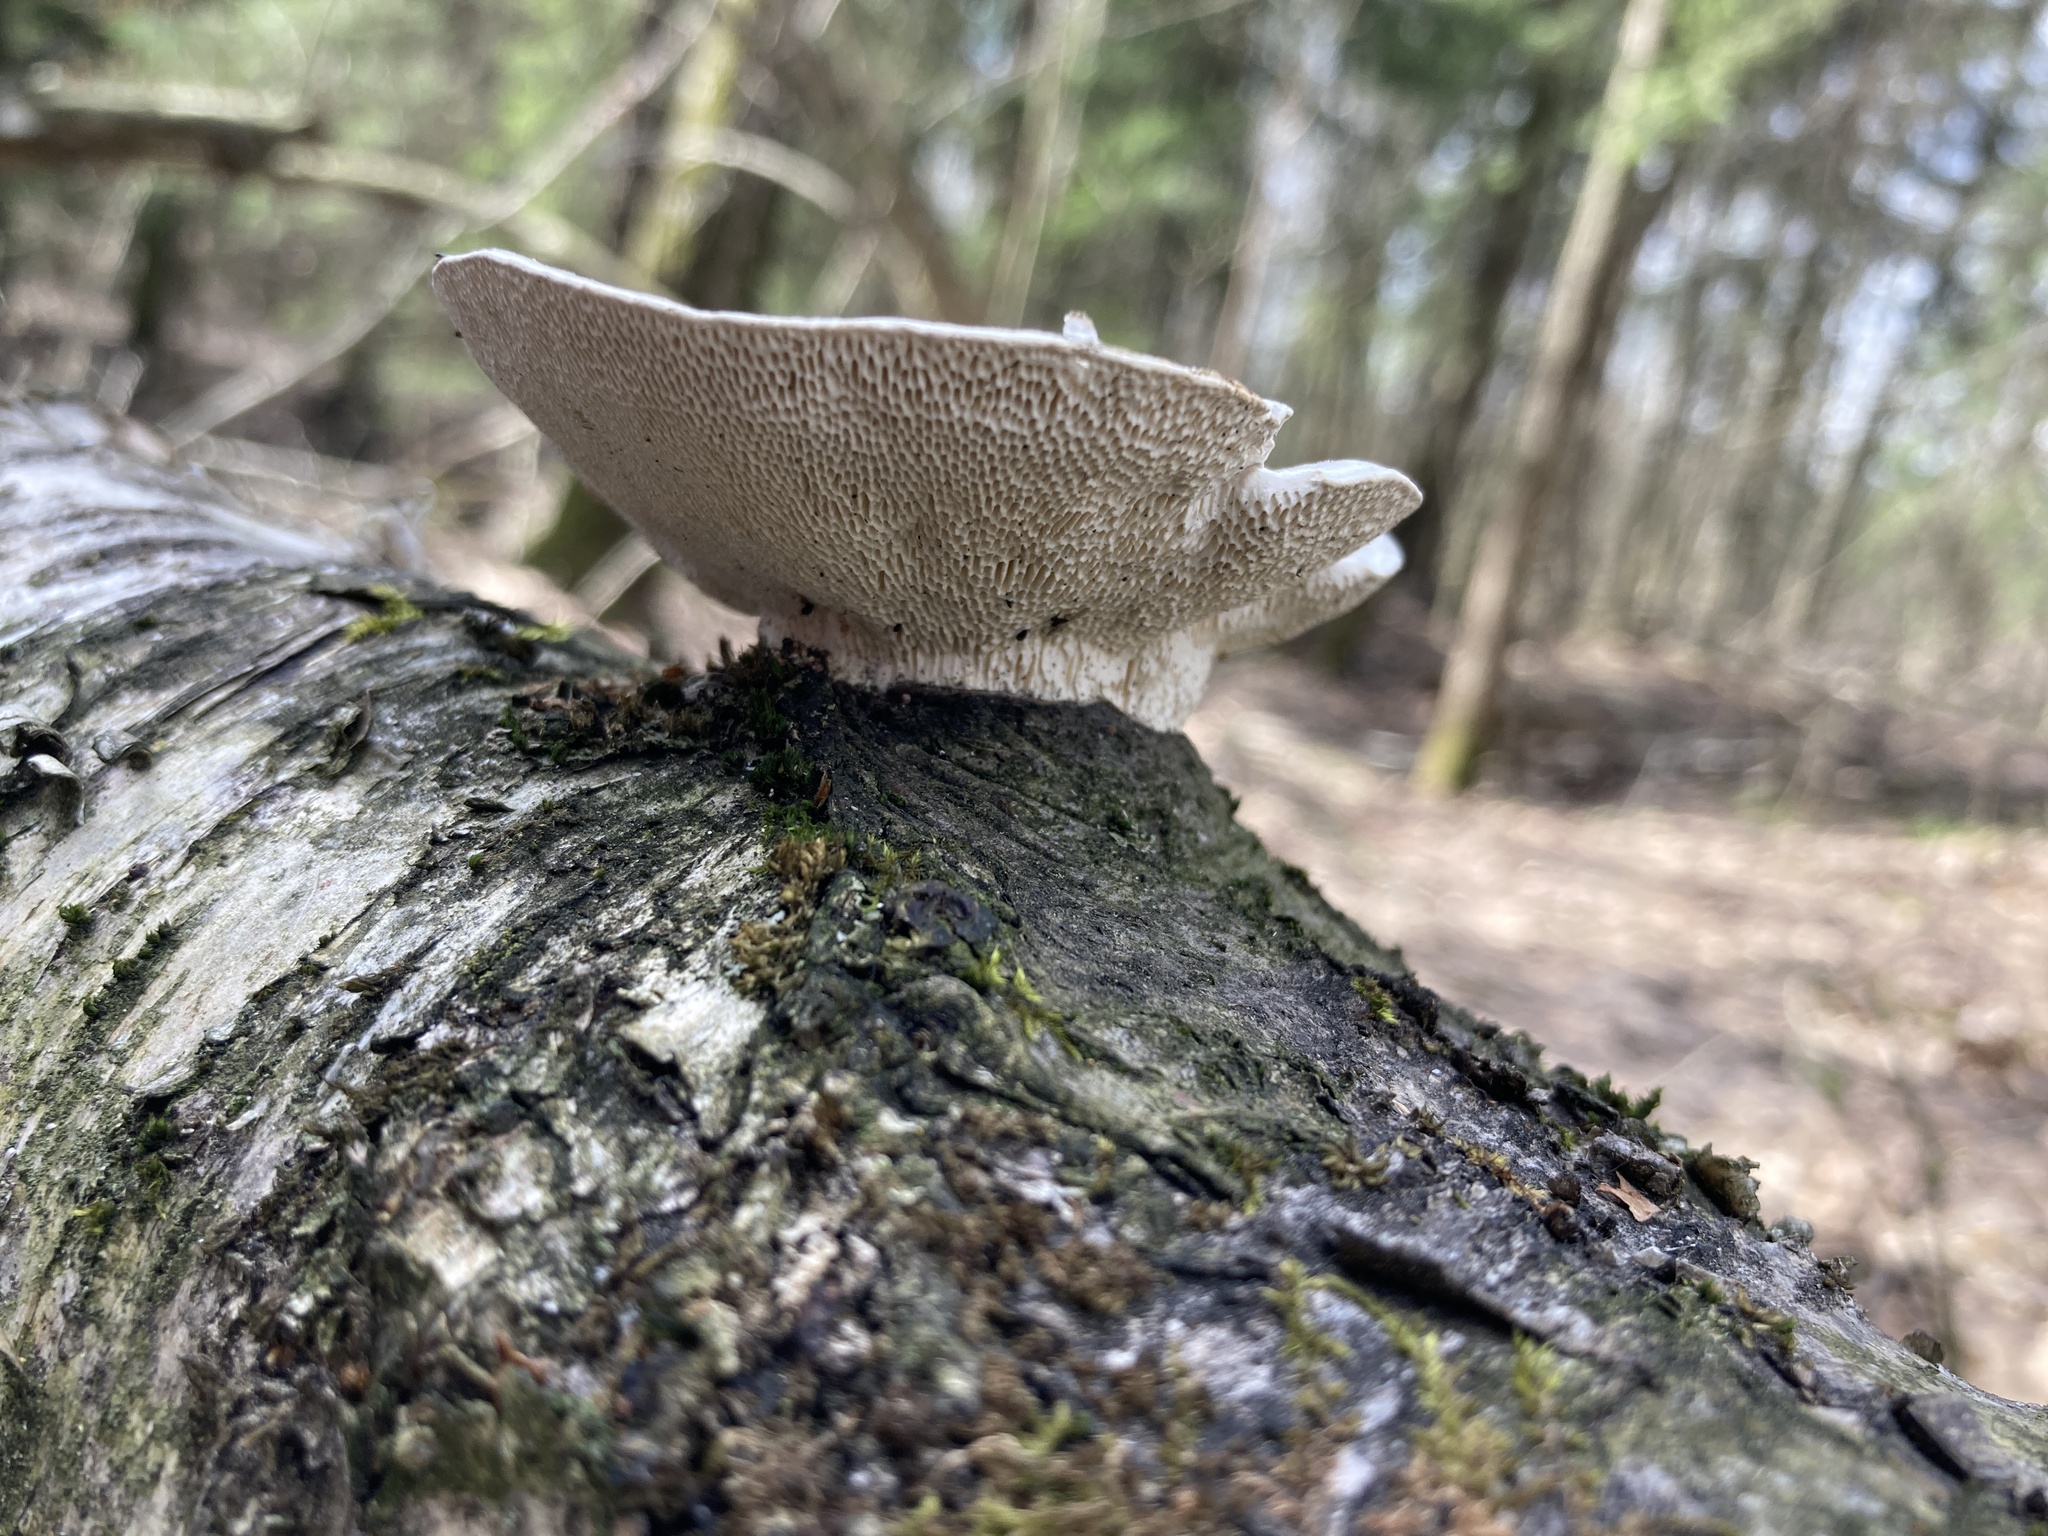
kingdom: Fungi
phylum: Basidiomycota
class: Agaricomycetes
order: Polyporales
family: Polyporaceae
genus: Trametes
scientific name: Trametes hirsuta
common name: Hairy bracket
